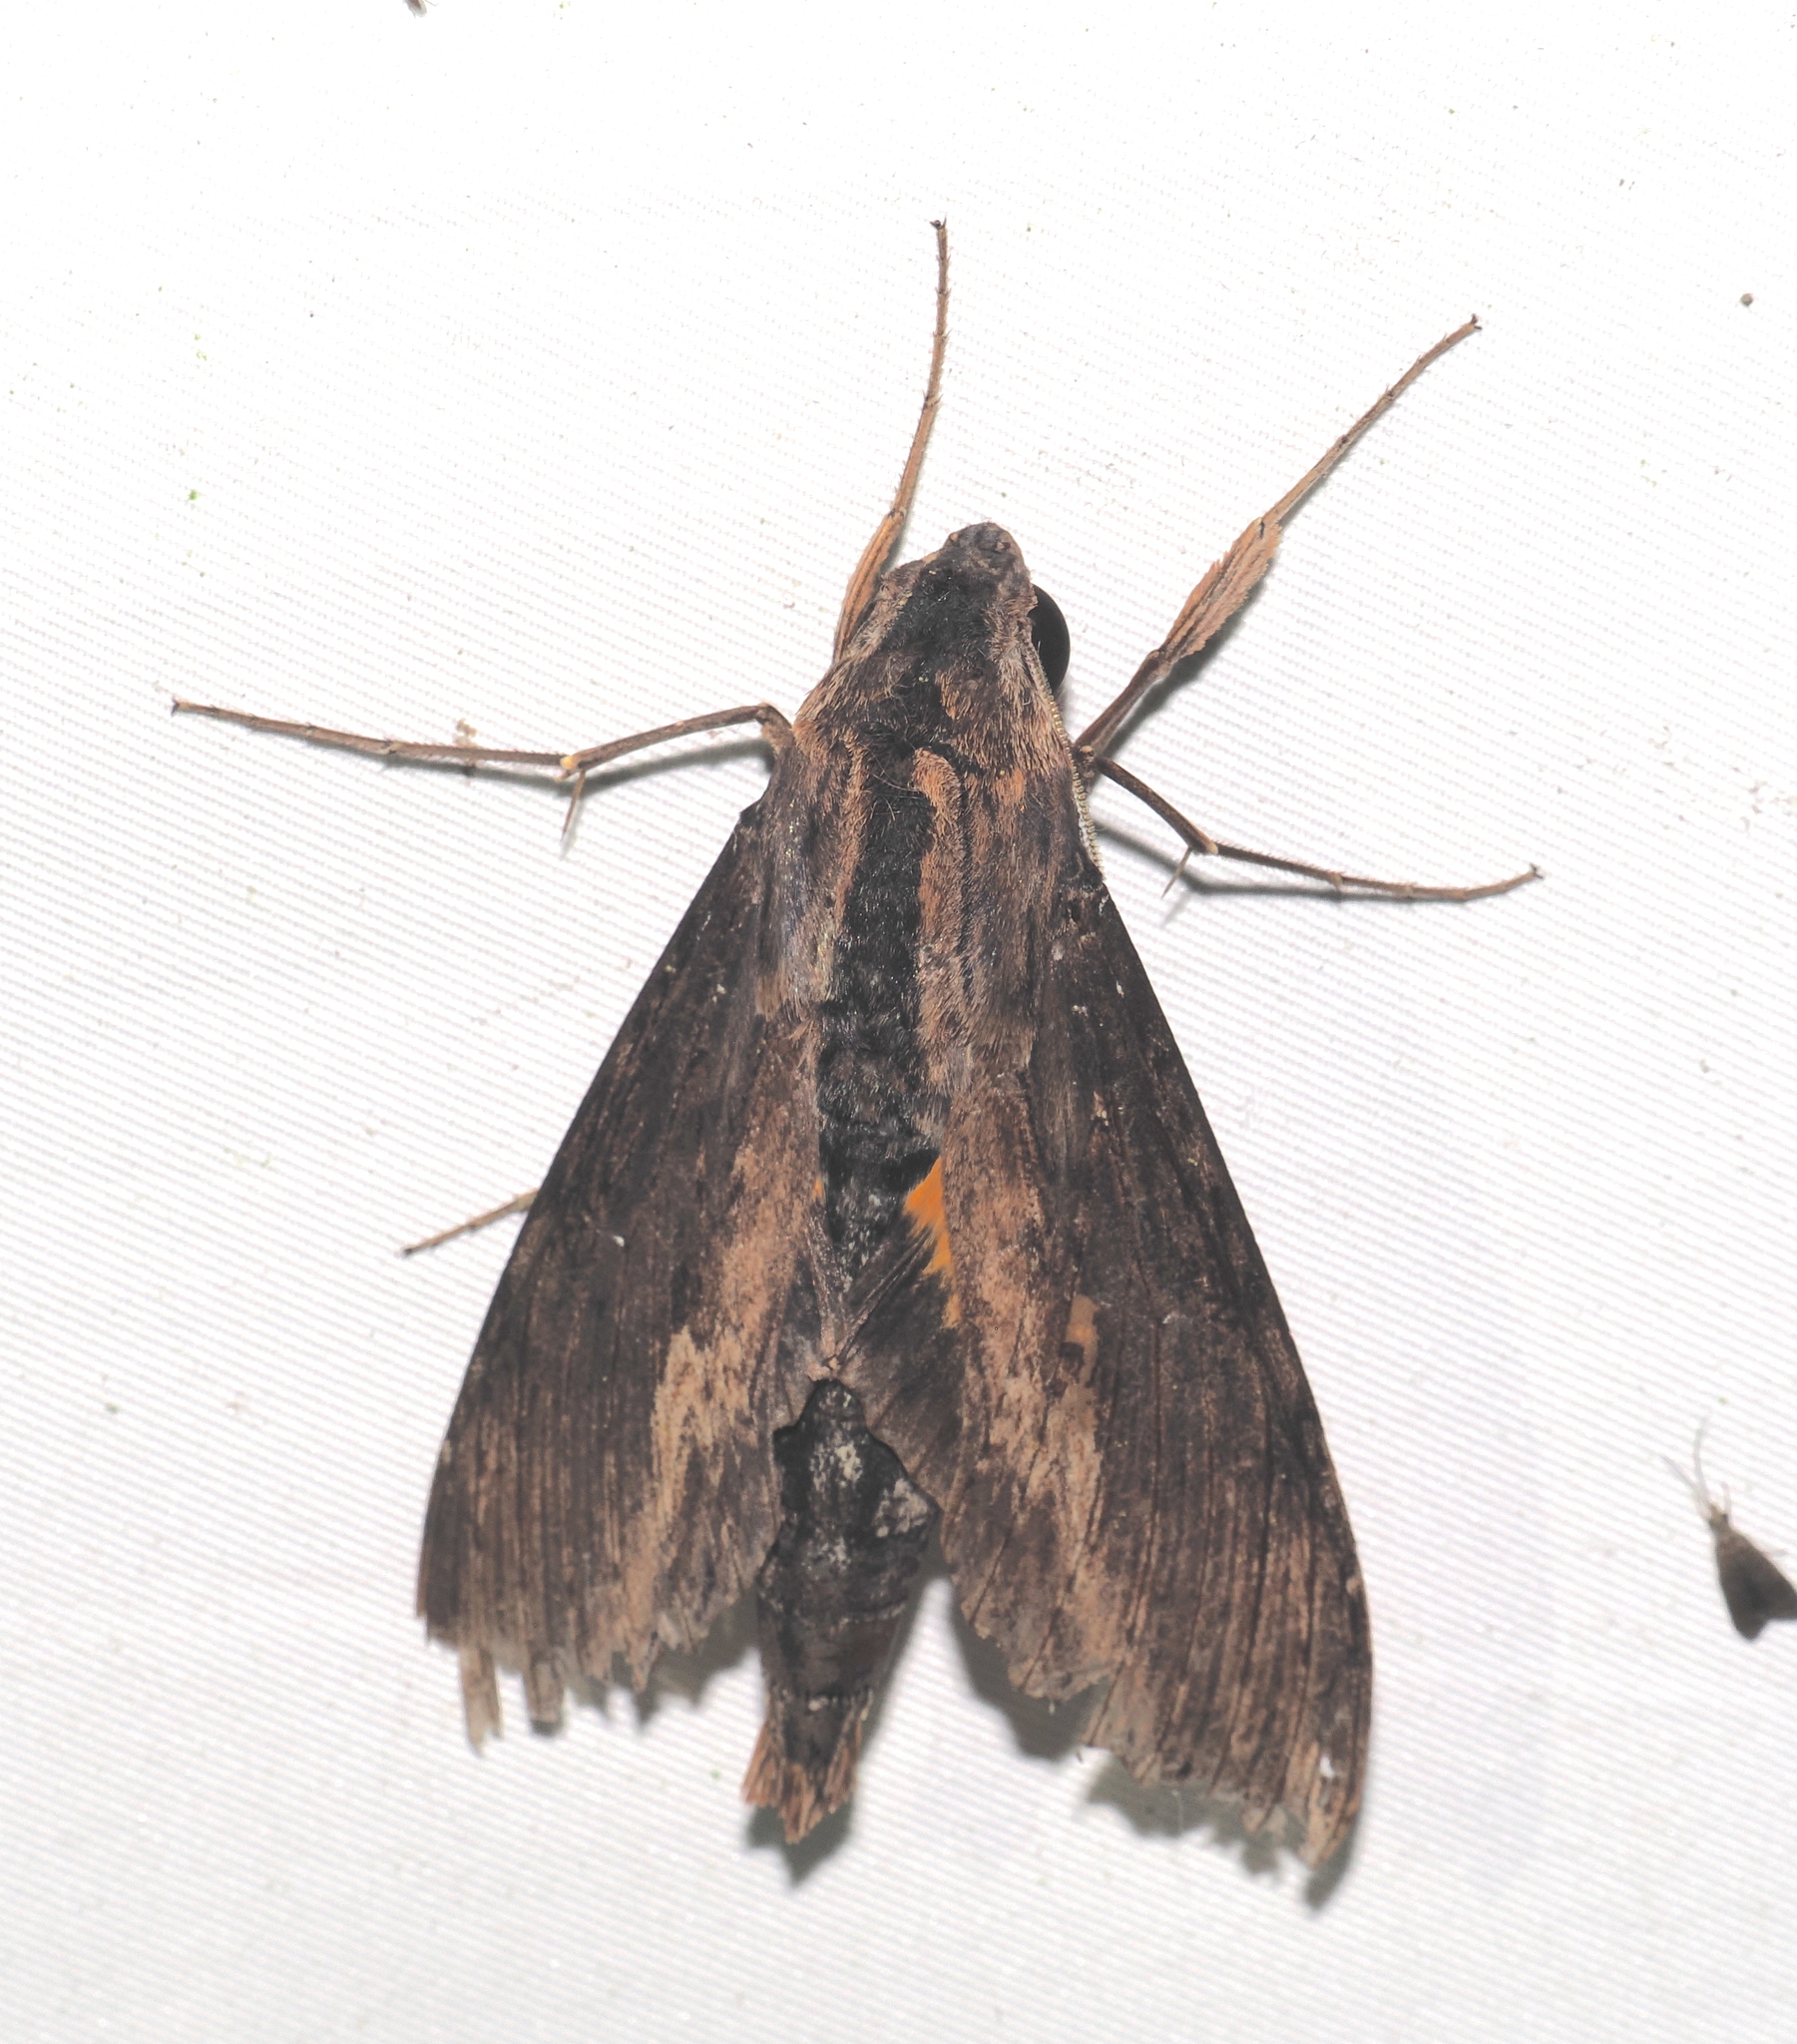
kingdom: Animalia
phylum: Arthropoda
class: Insecta
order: Lepidoptera
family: Sphingidae
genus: Erinnyis
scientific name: Erinnyis alope
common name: Alope sphinx
